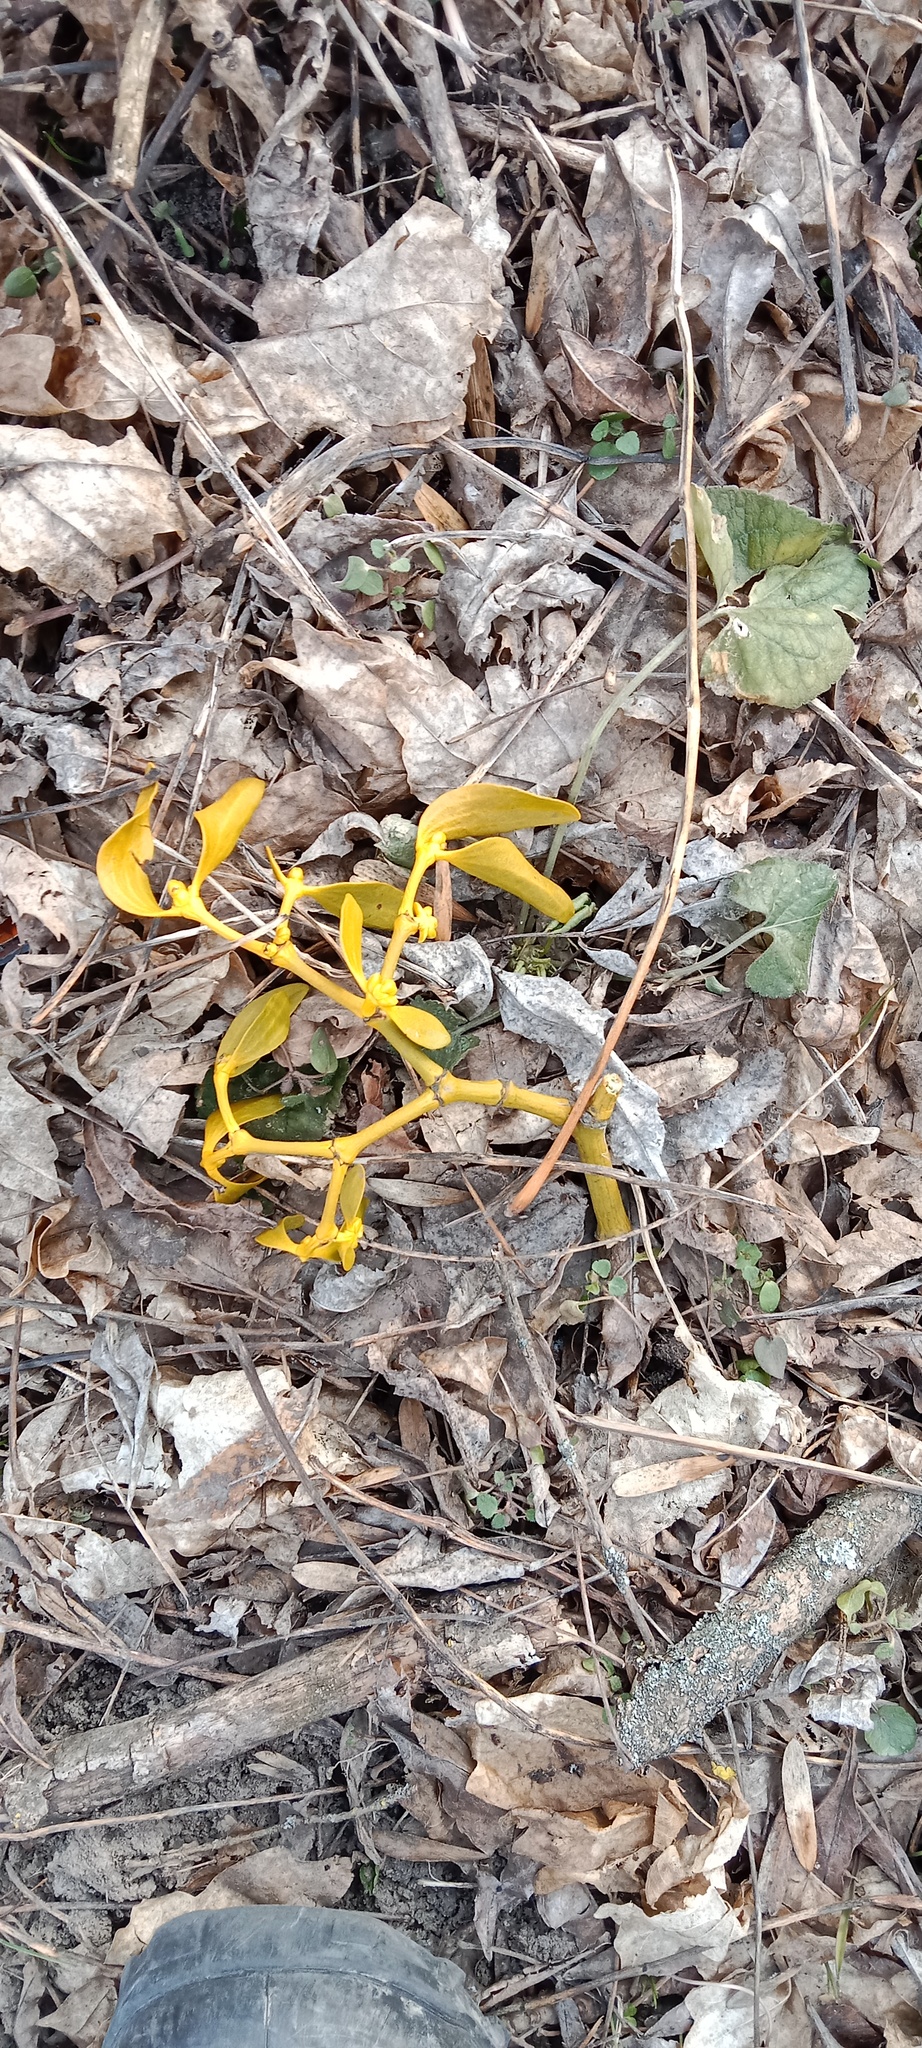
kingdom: Plantae
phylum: Tracheophyta
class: Magnoliopsida
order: Santalales
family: Viscaceae
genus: Viscum
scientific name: Viscum album
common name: Mistletoe
